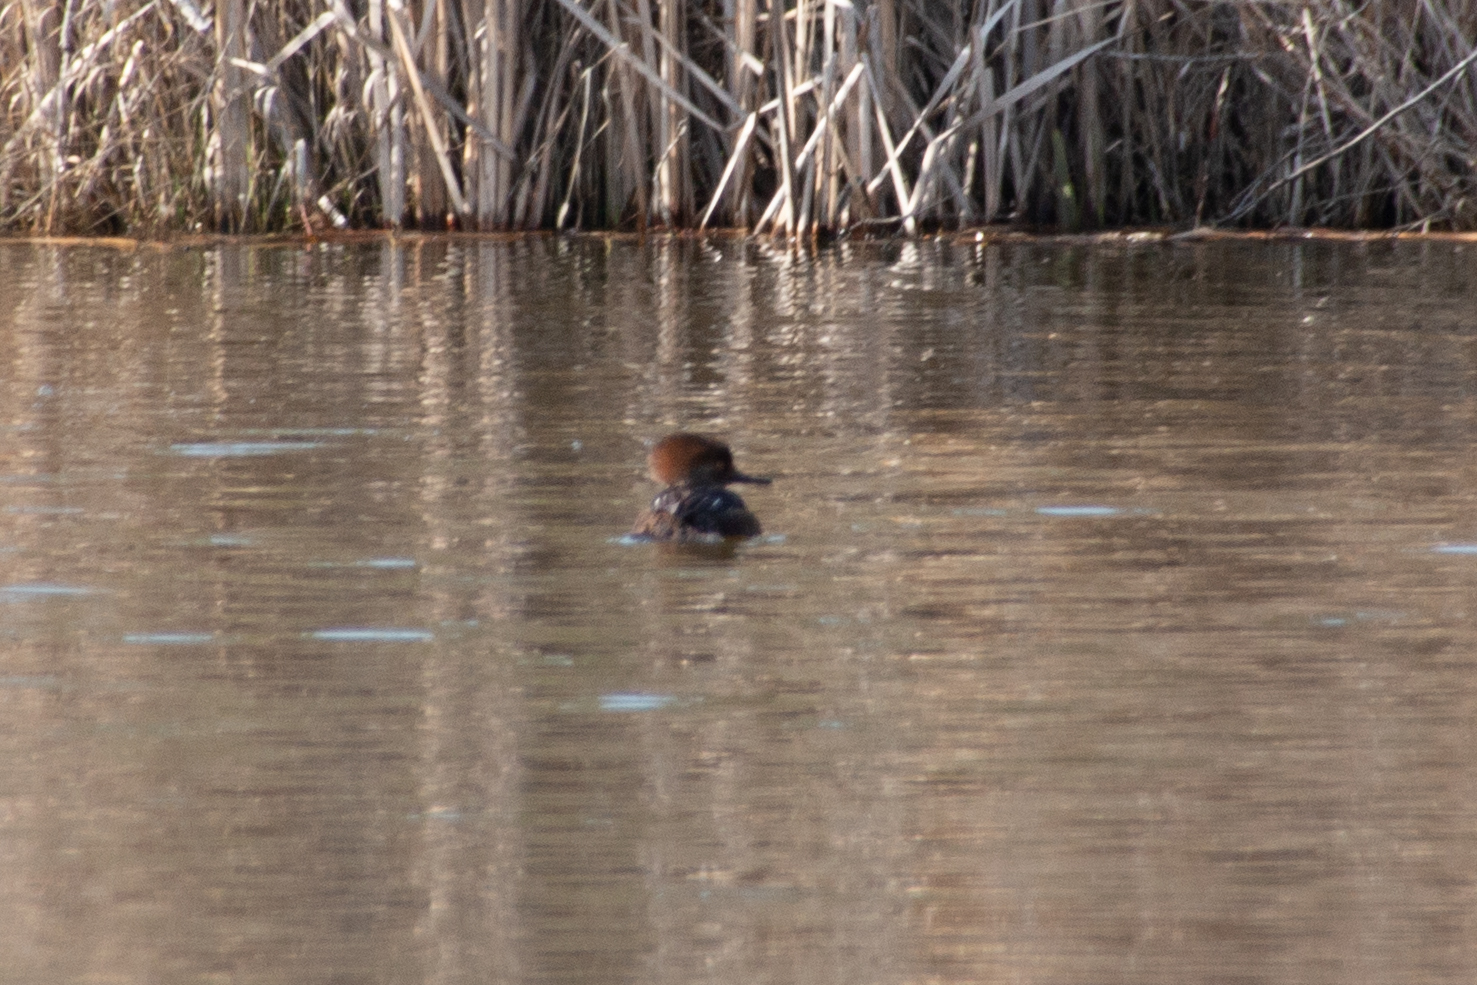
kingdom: Animalia
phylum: Chordata
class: Aves
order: Anseriformes
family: Anatidae
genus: Lophodytes
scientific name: Lophodytes cucullatus
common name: Hooded merganser
